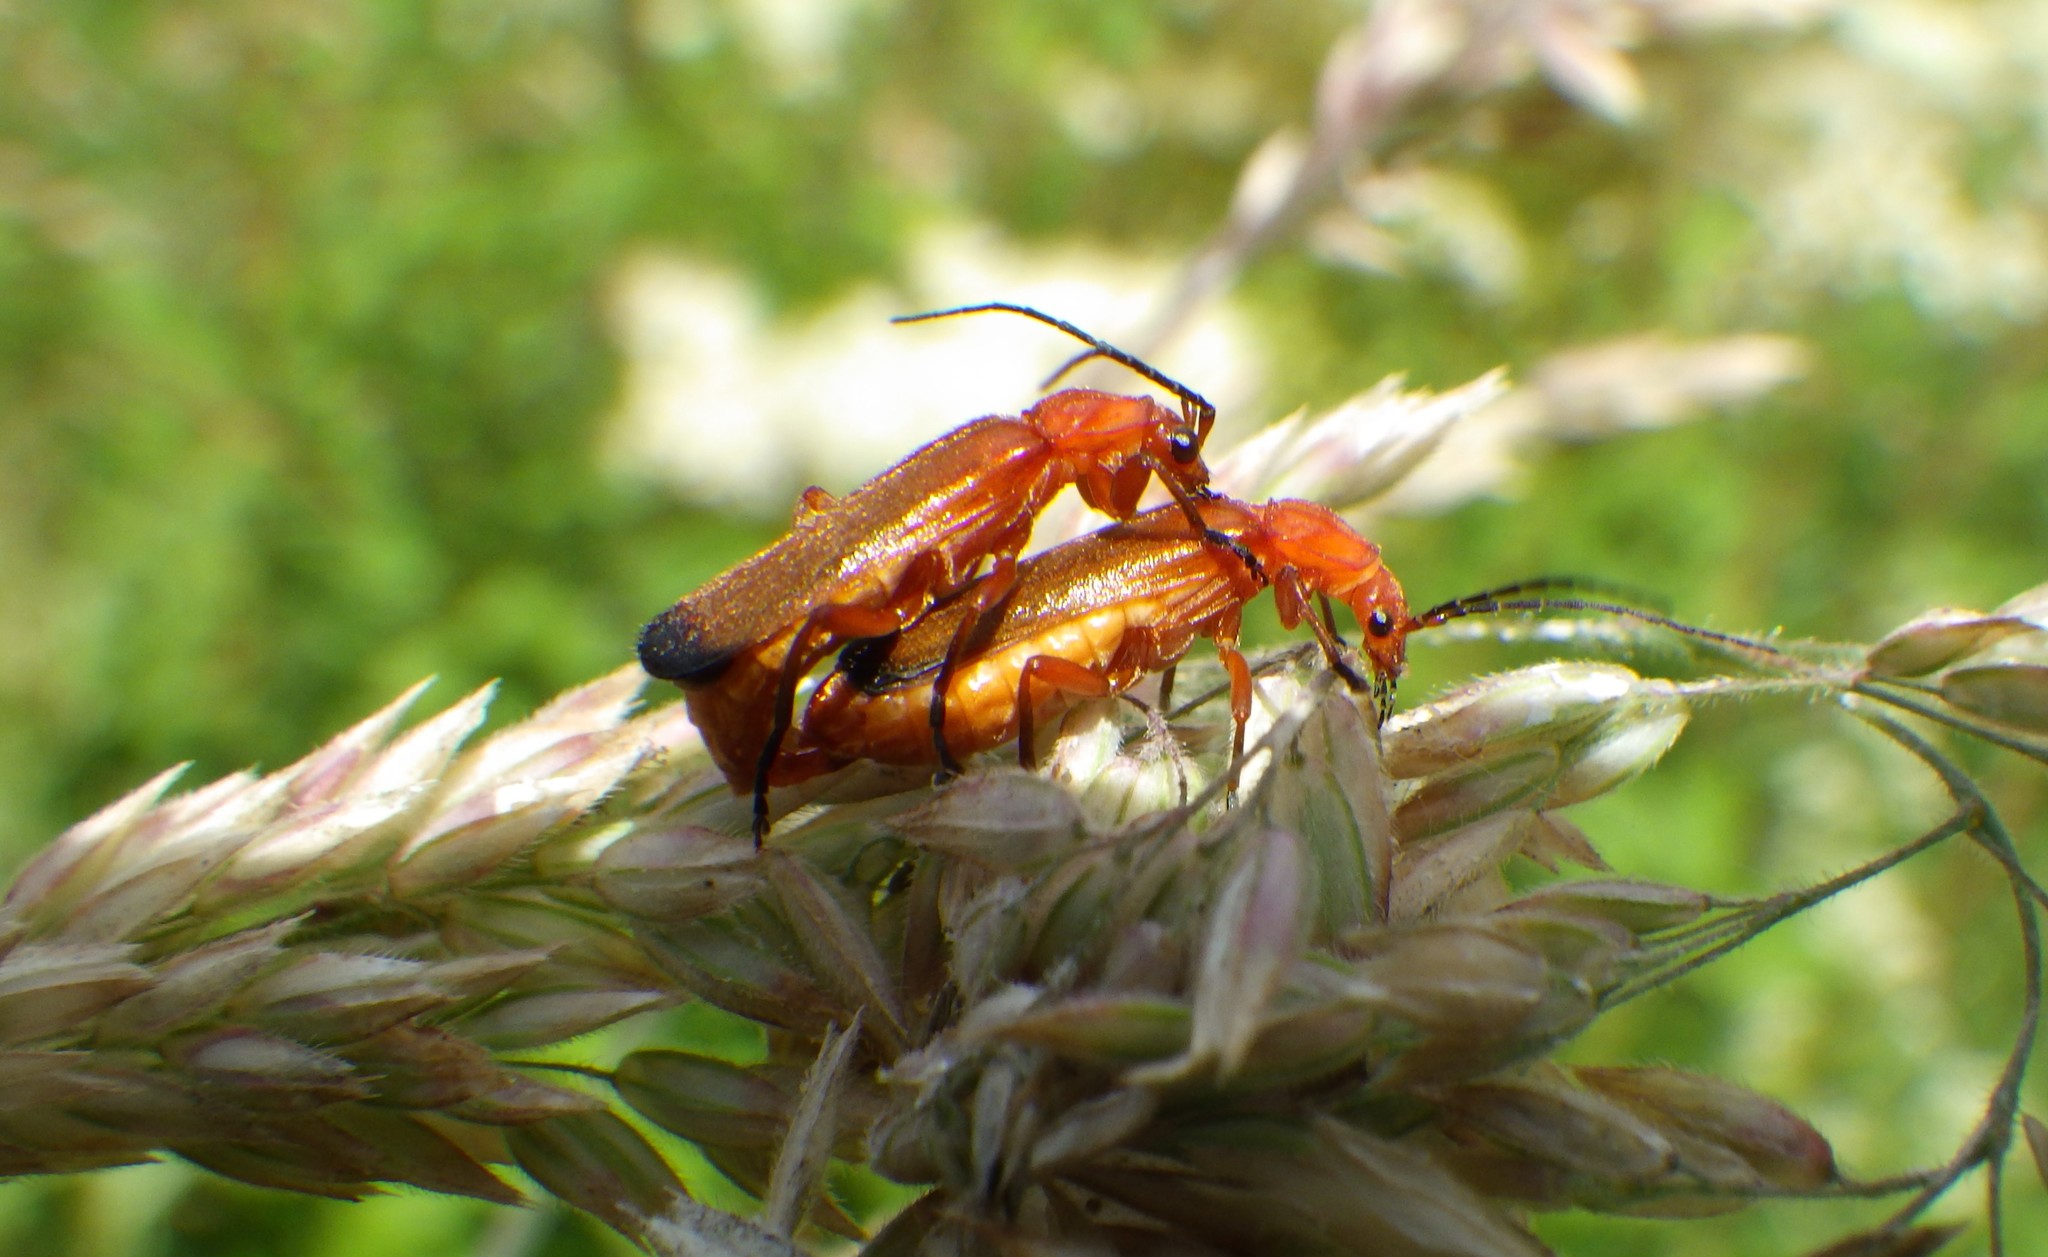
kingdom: Animalia
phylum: Arthropoda
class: Insecta
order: Coleoptera
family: Cantharidae
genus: Rhagonycha
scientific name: Rhagonycha fulva
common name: Common red soldier beetle
